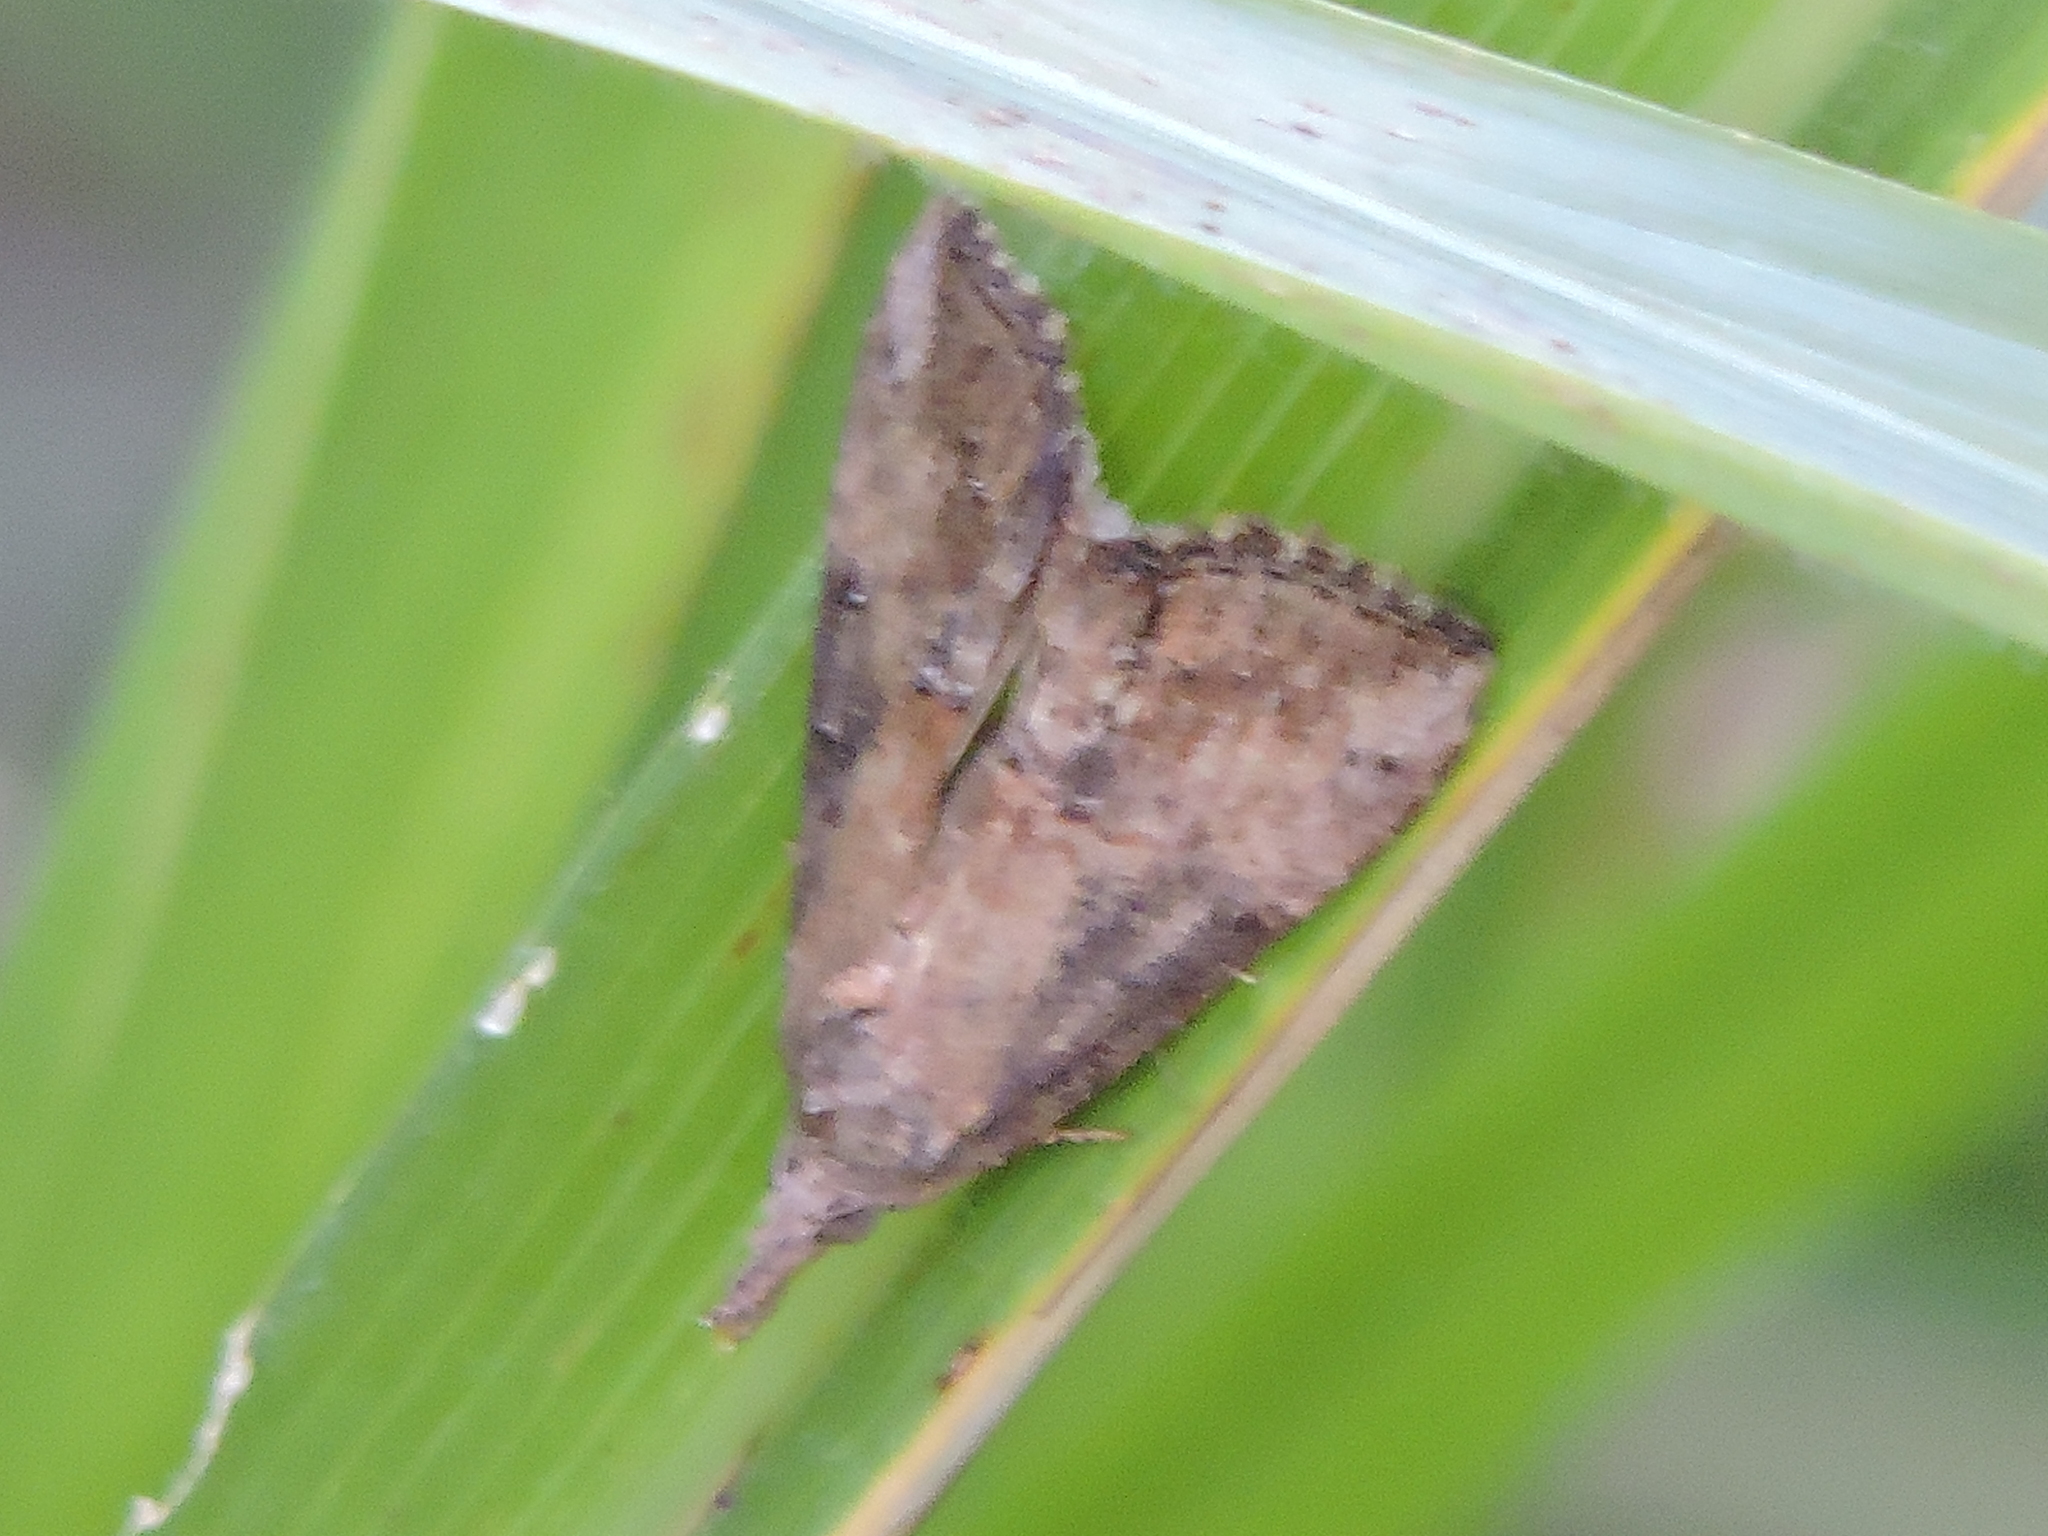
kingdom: Animalia
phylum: Arthropoda
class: Insecta
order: Lepidoptera
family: Erebidae
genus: Hypena
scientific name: Hypena scabra
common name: Green cloverworm
